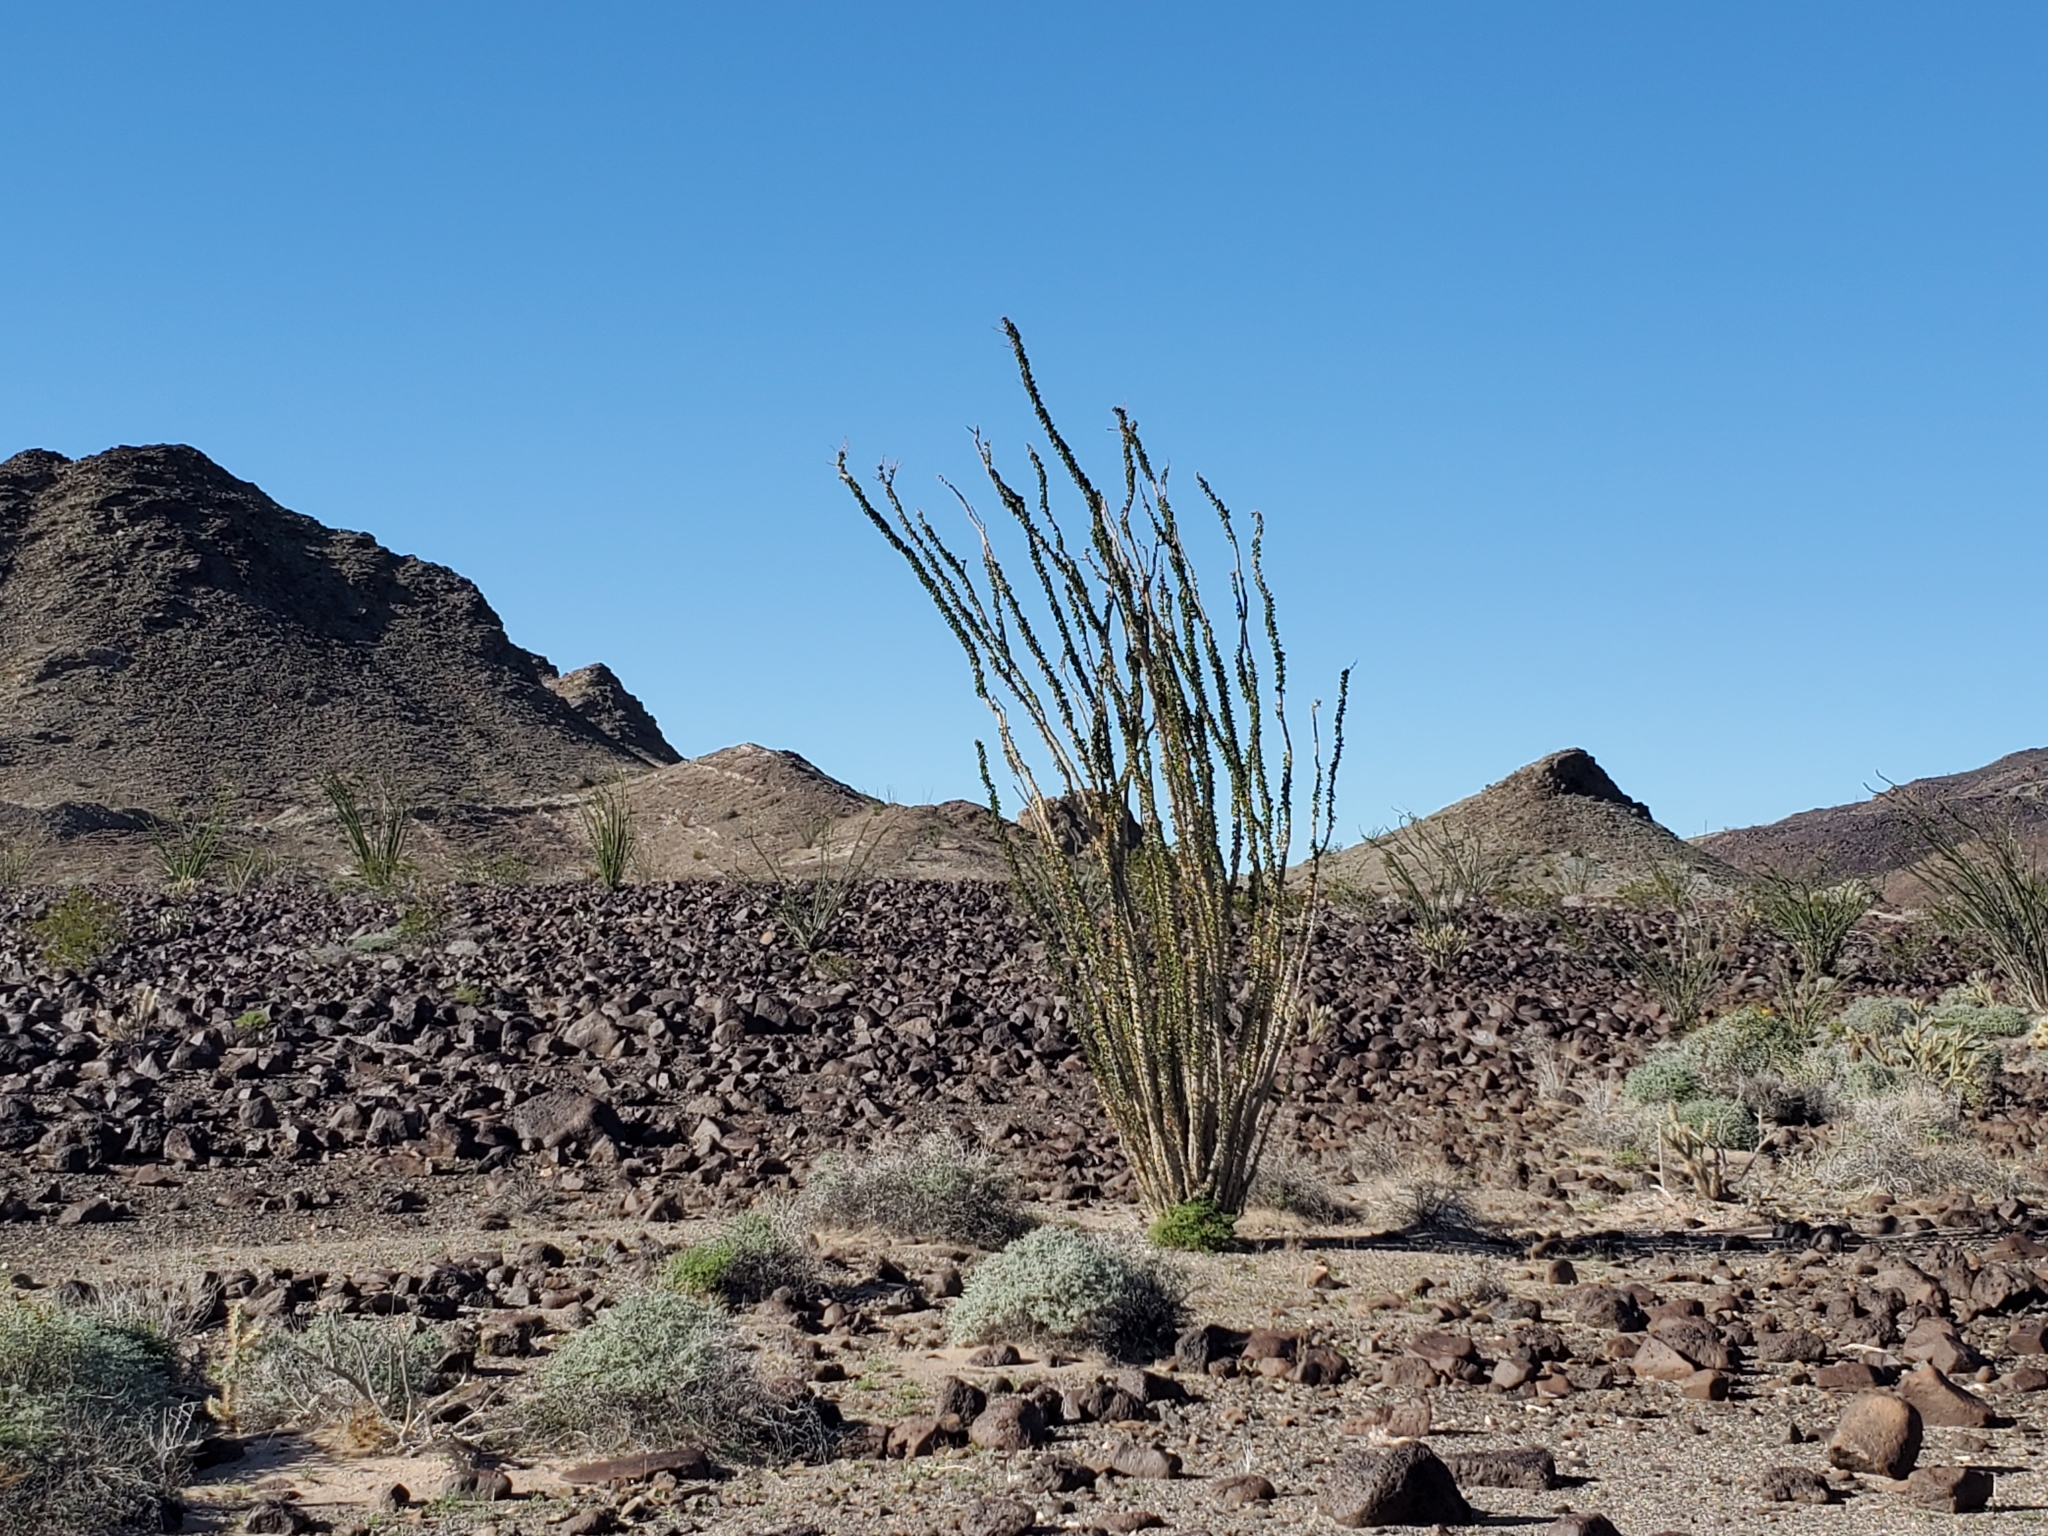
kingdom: Plantae
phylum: Tracheophyta
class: Magnoliopsida
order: Ericales
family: Fouquieriaceae
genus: Fouquieria
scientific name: Fouquieria splendens
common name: Vine-cactus
